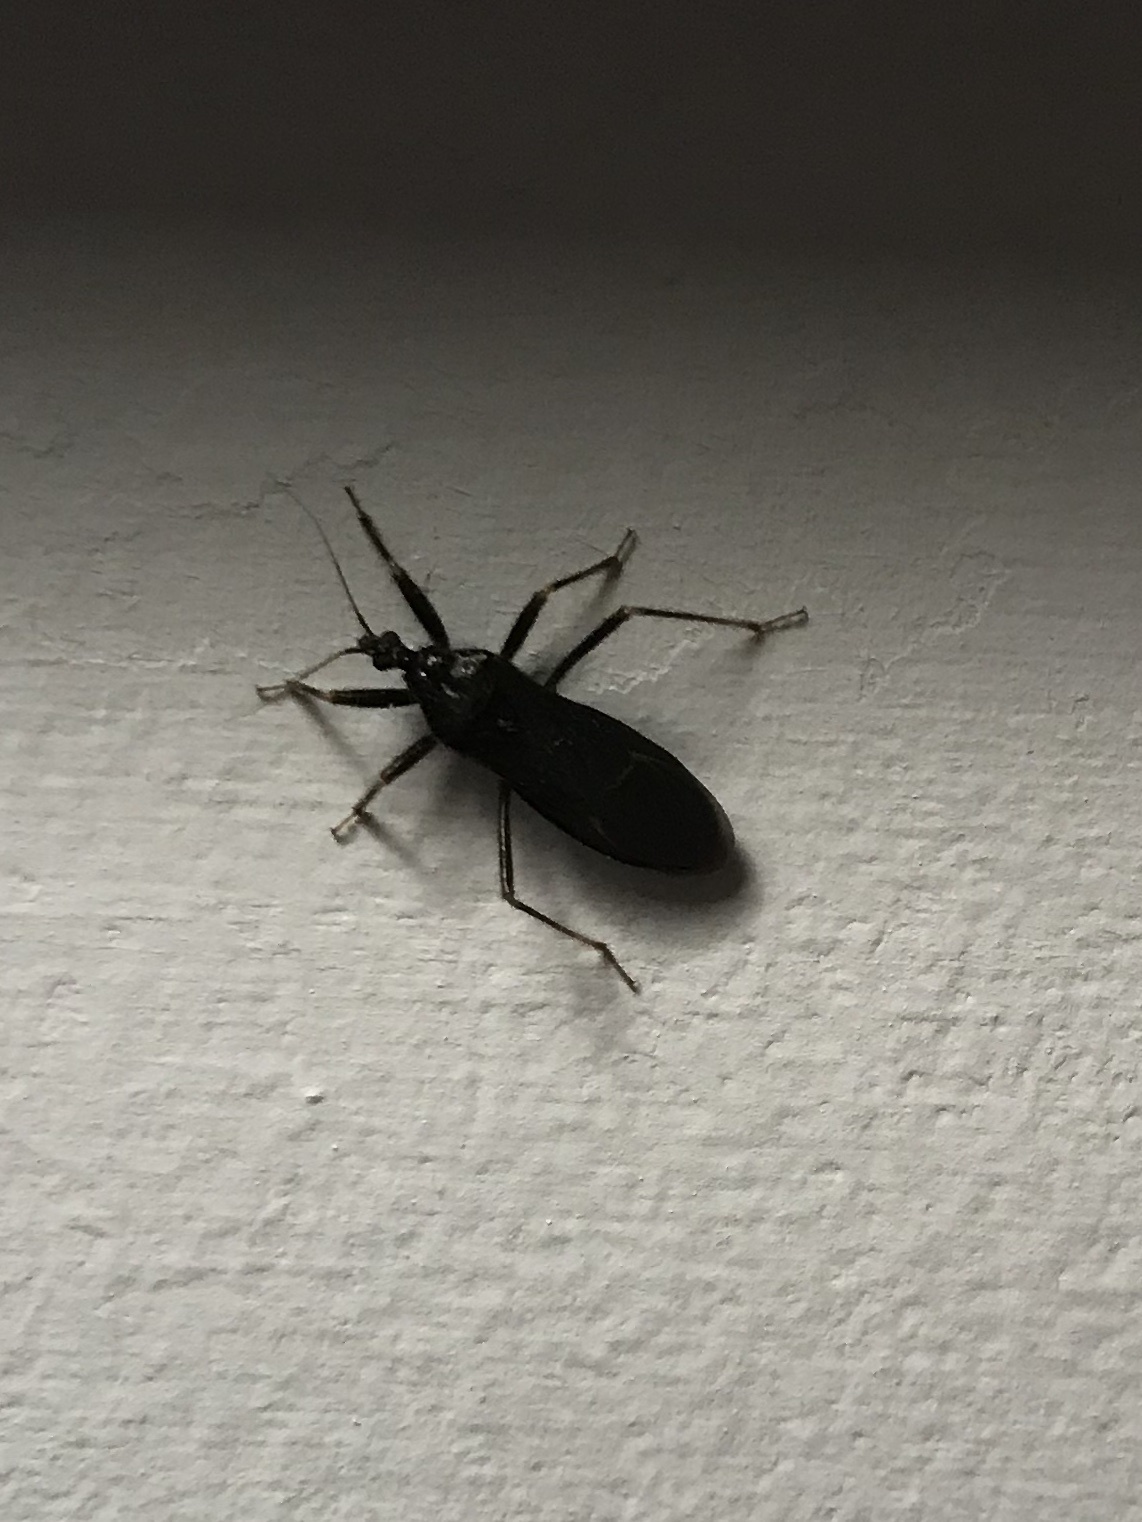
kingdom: Animalia
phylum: Arthropoda
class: Insecta
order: Hemiptera
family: Reduviidae
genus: Reduvius
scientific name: Reduvius personatus
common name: Masked hunter
